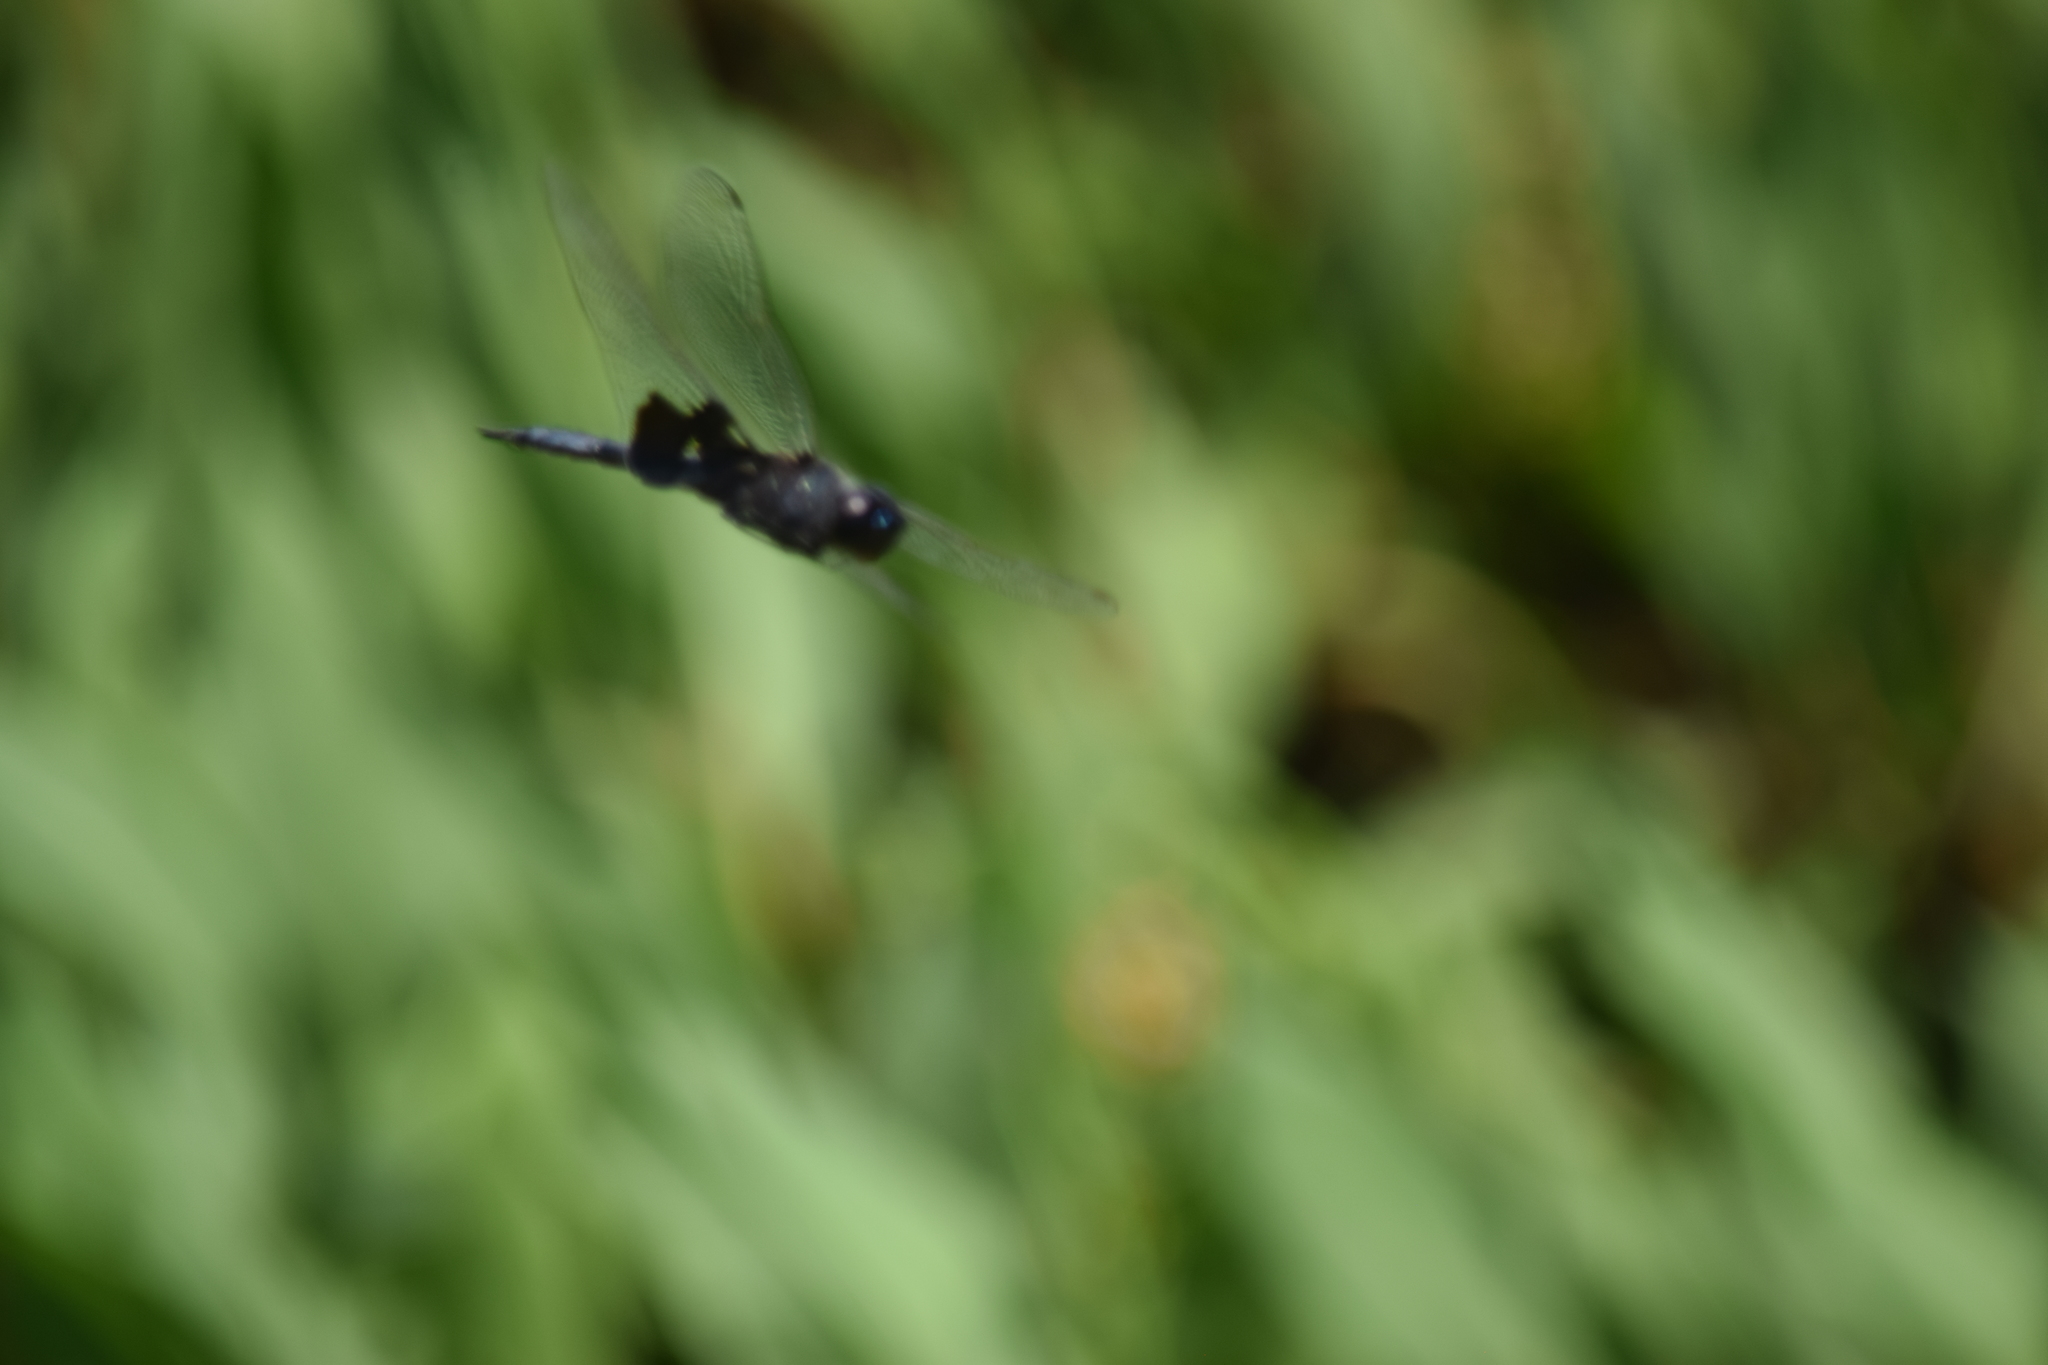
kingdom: Animalia
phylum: Arthropoda
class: Insecta
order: Odonata
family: Libellulidae
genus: Tramea
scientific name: Tramea lacerata
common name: Black saddlebags
